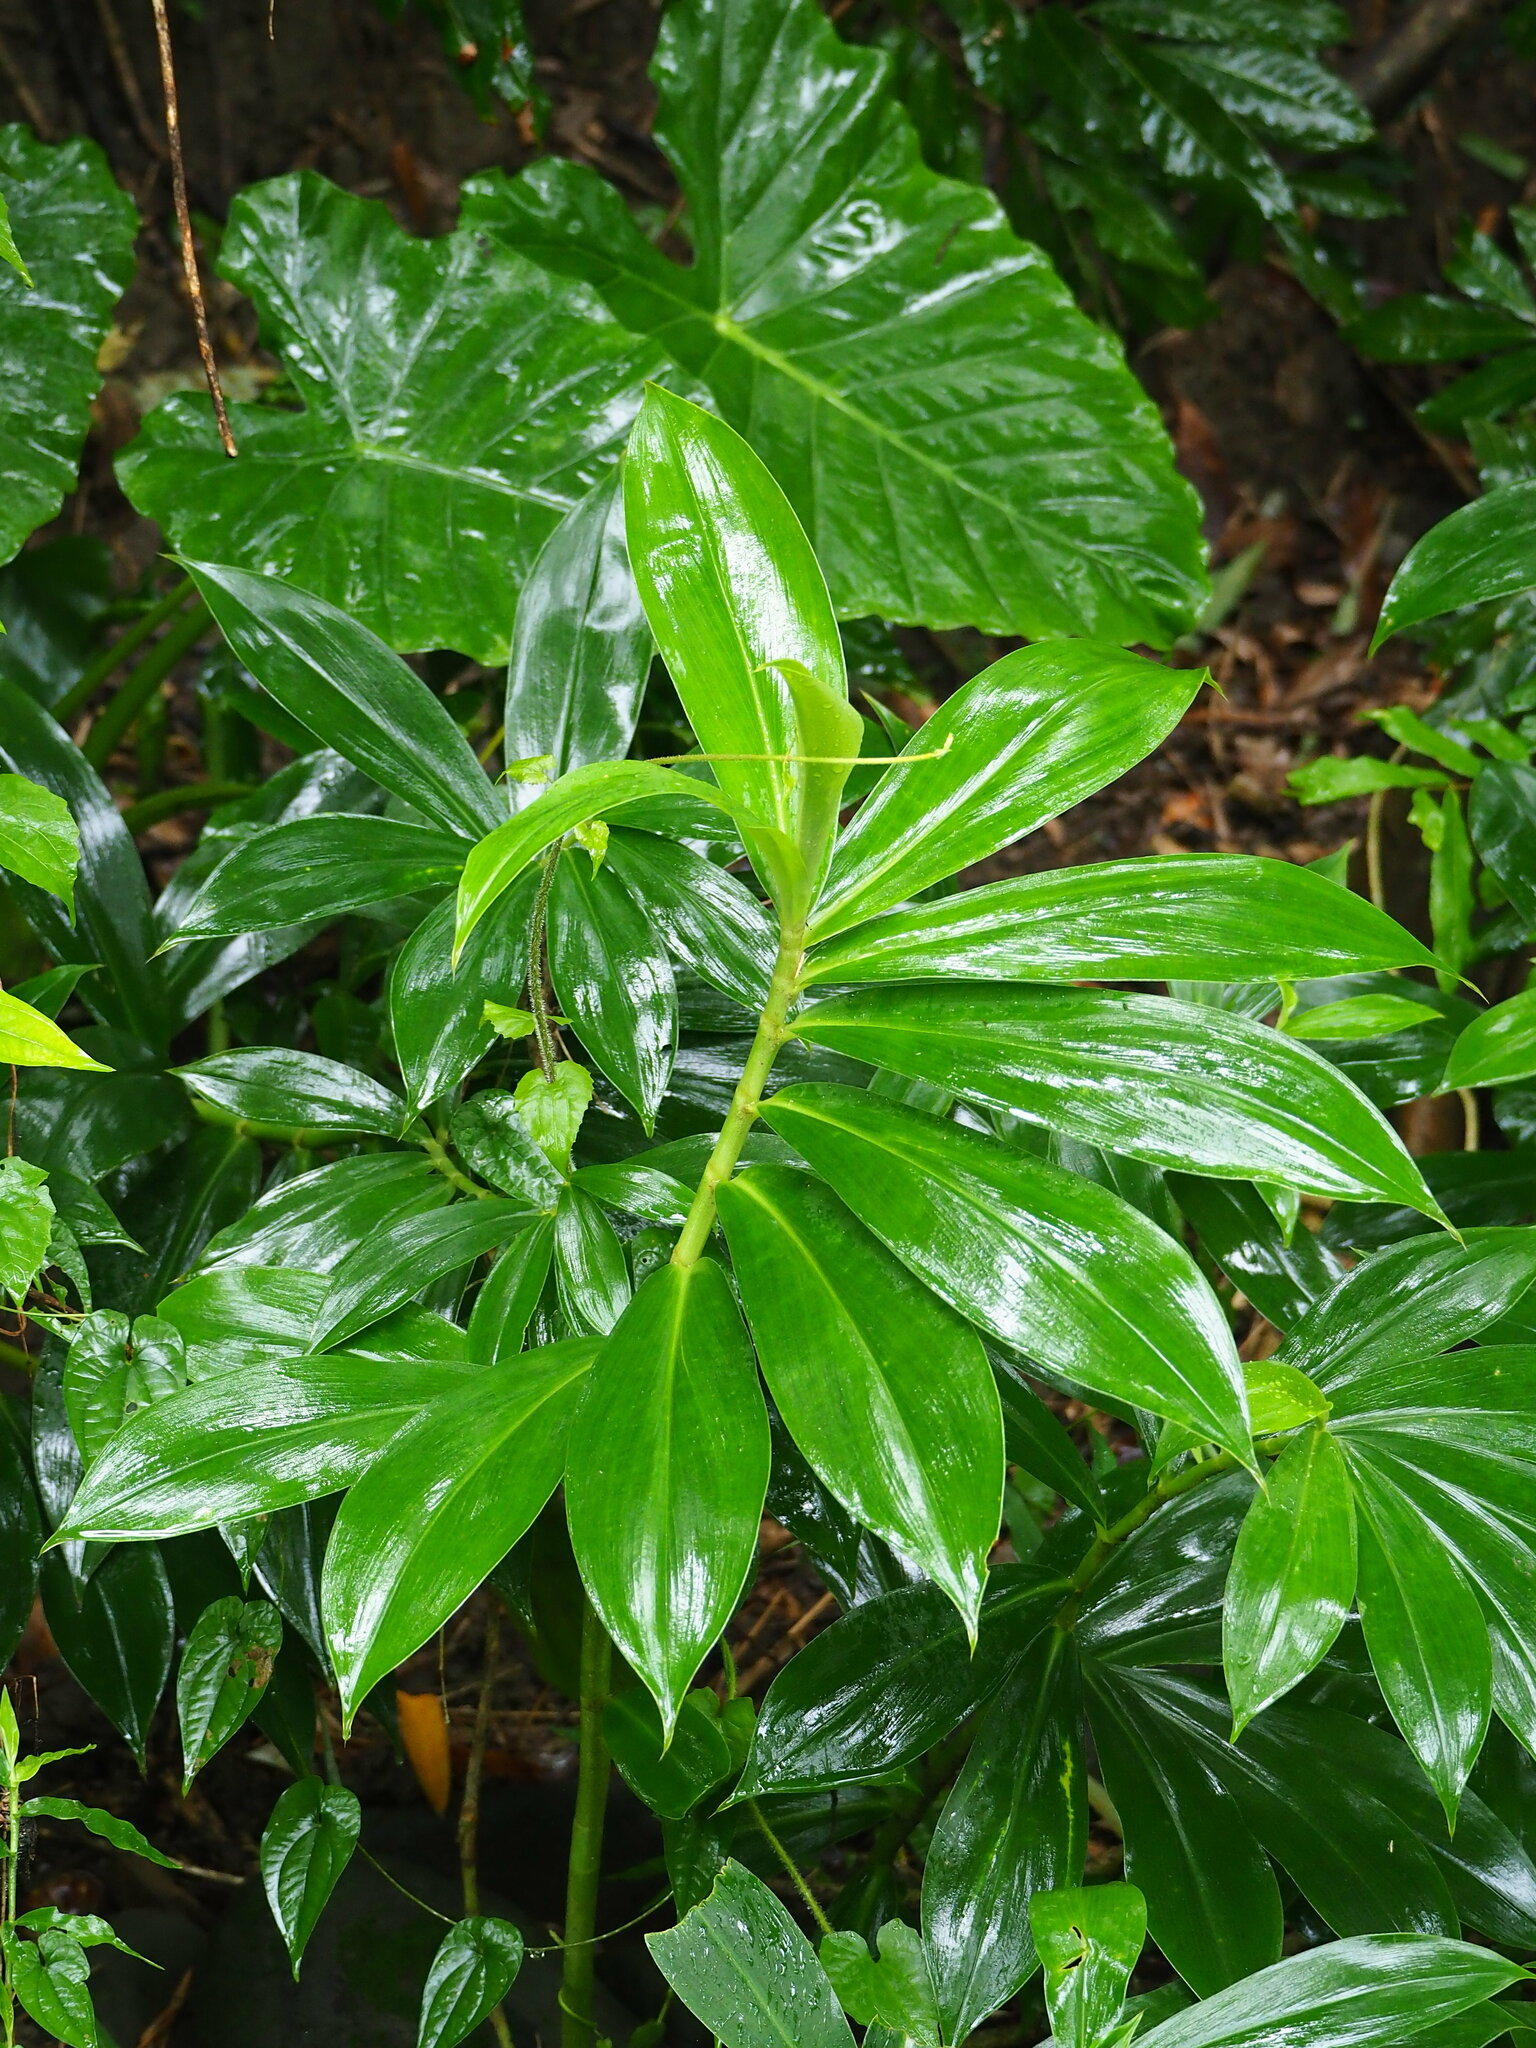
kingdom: Plantae
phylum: Tracheophyta
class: Liliopsida
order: Zingiberales
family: Costaceae
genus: Hellenia
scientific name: Hellenia speciosa
